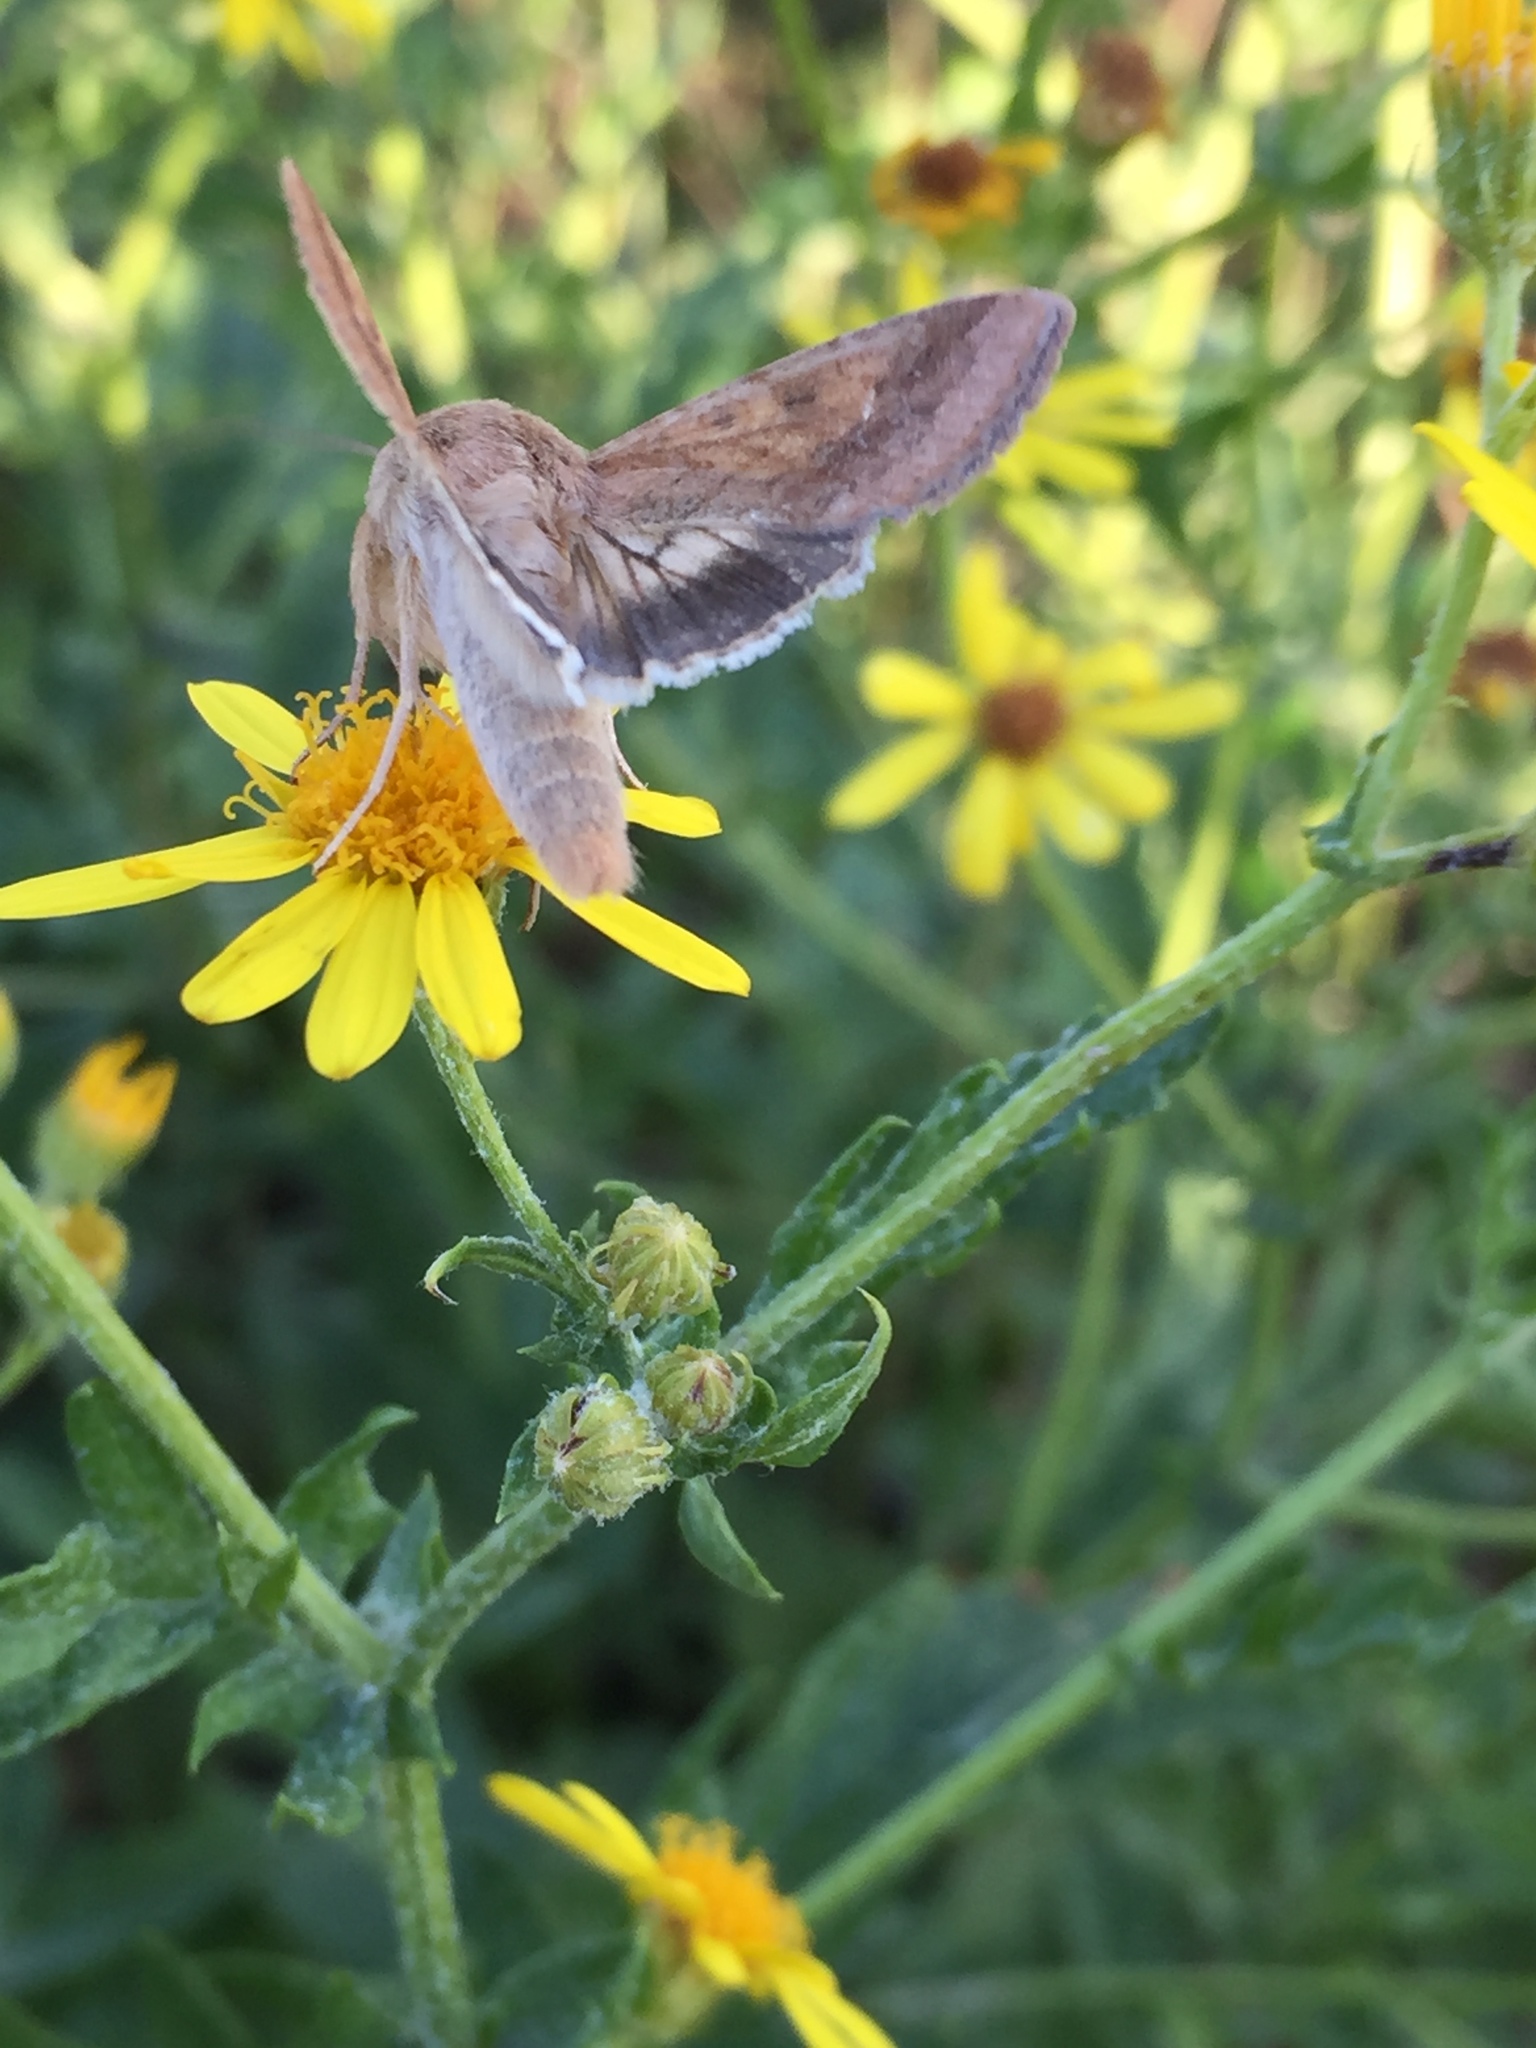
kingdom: Animalia
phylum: Arthropoda
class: Insecta
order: Lepidoptera
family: Noctuidae
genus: Helicoverpa
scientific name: Helicoverpa armigera
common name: Cotton bollworm
